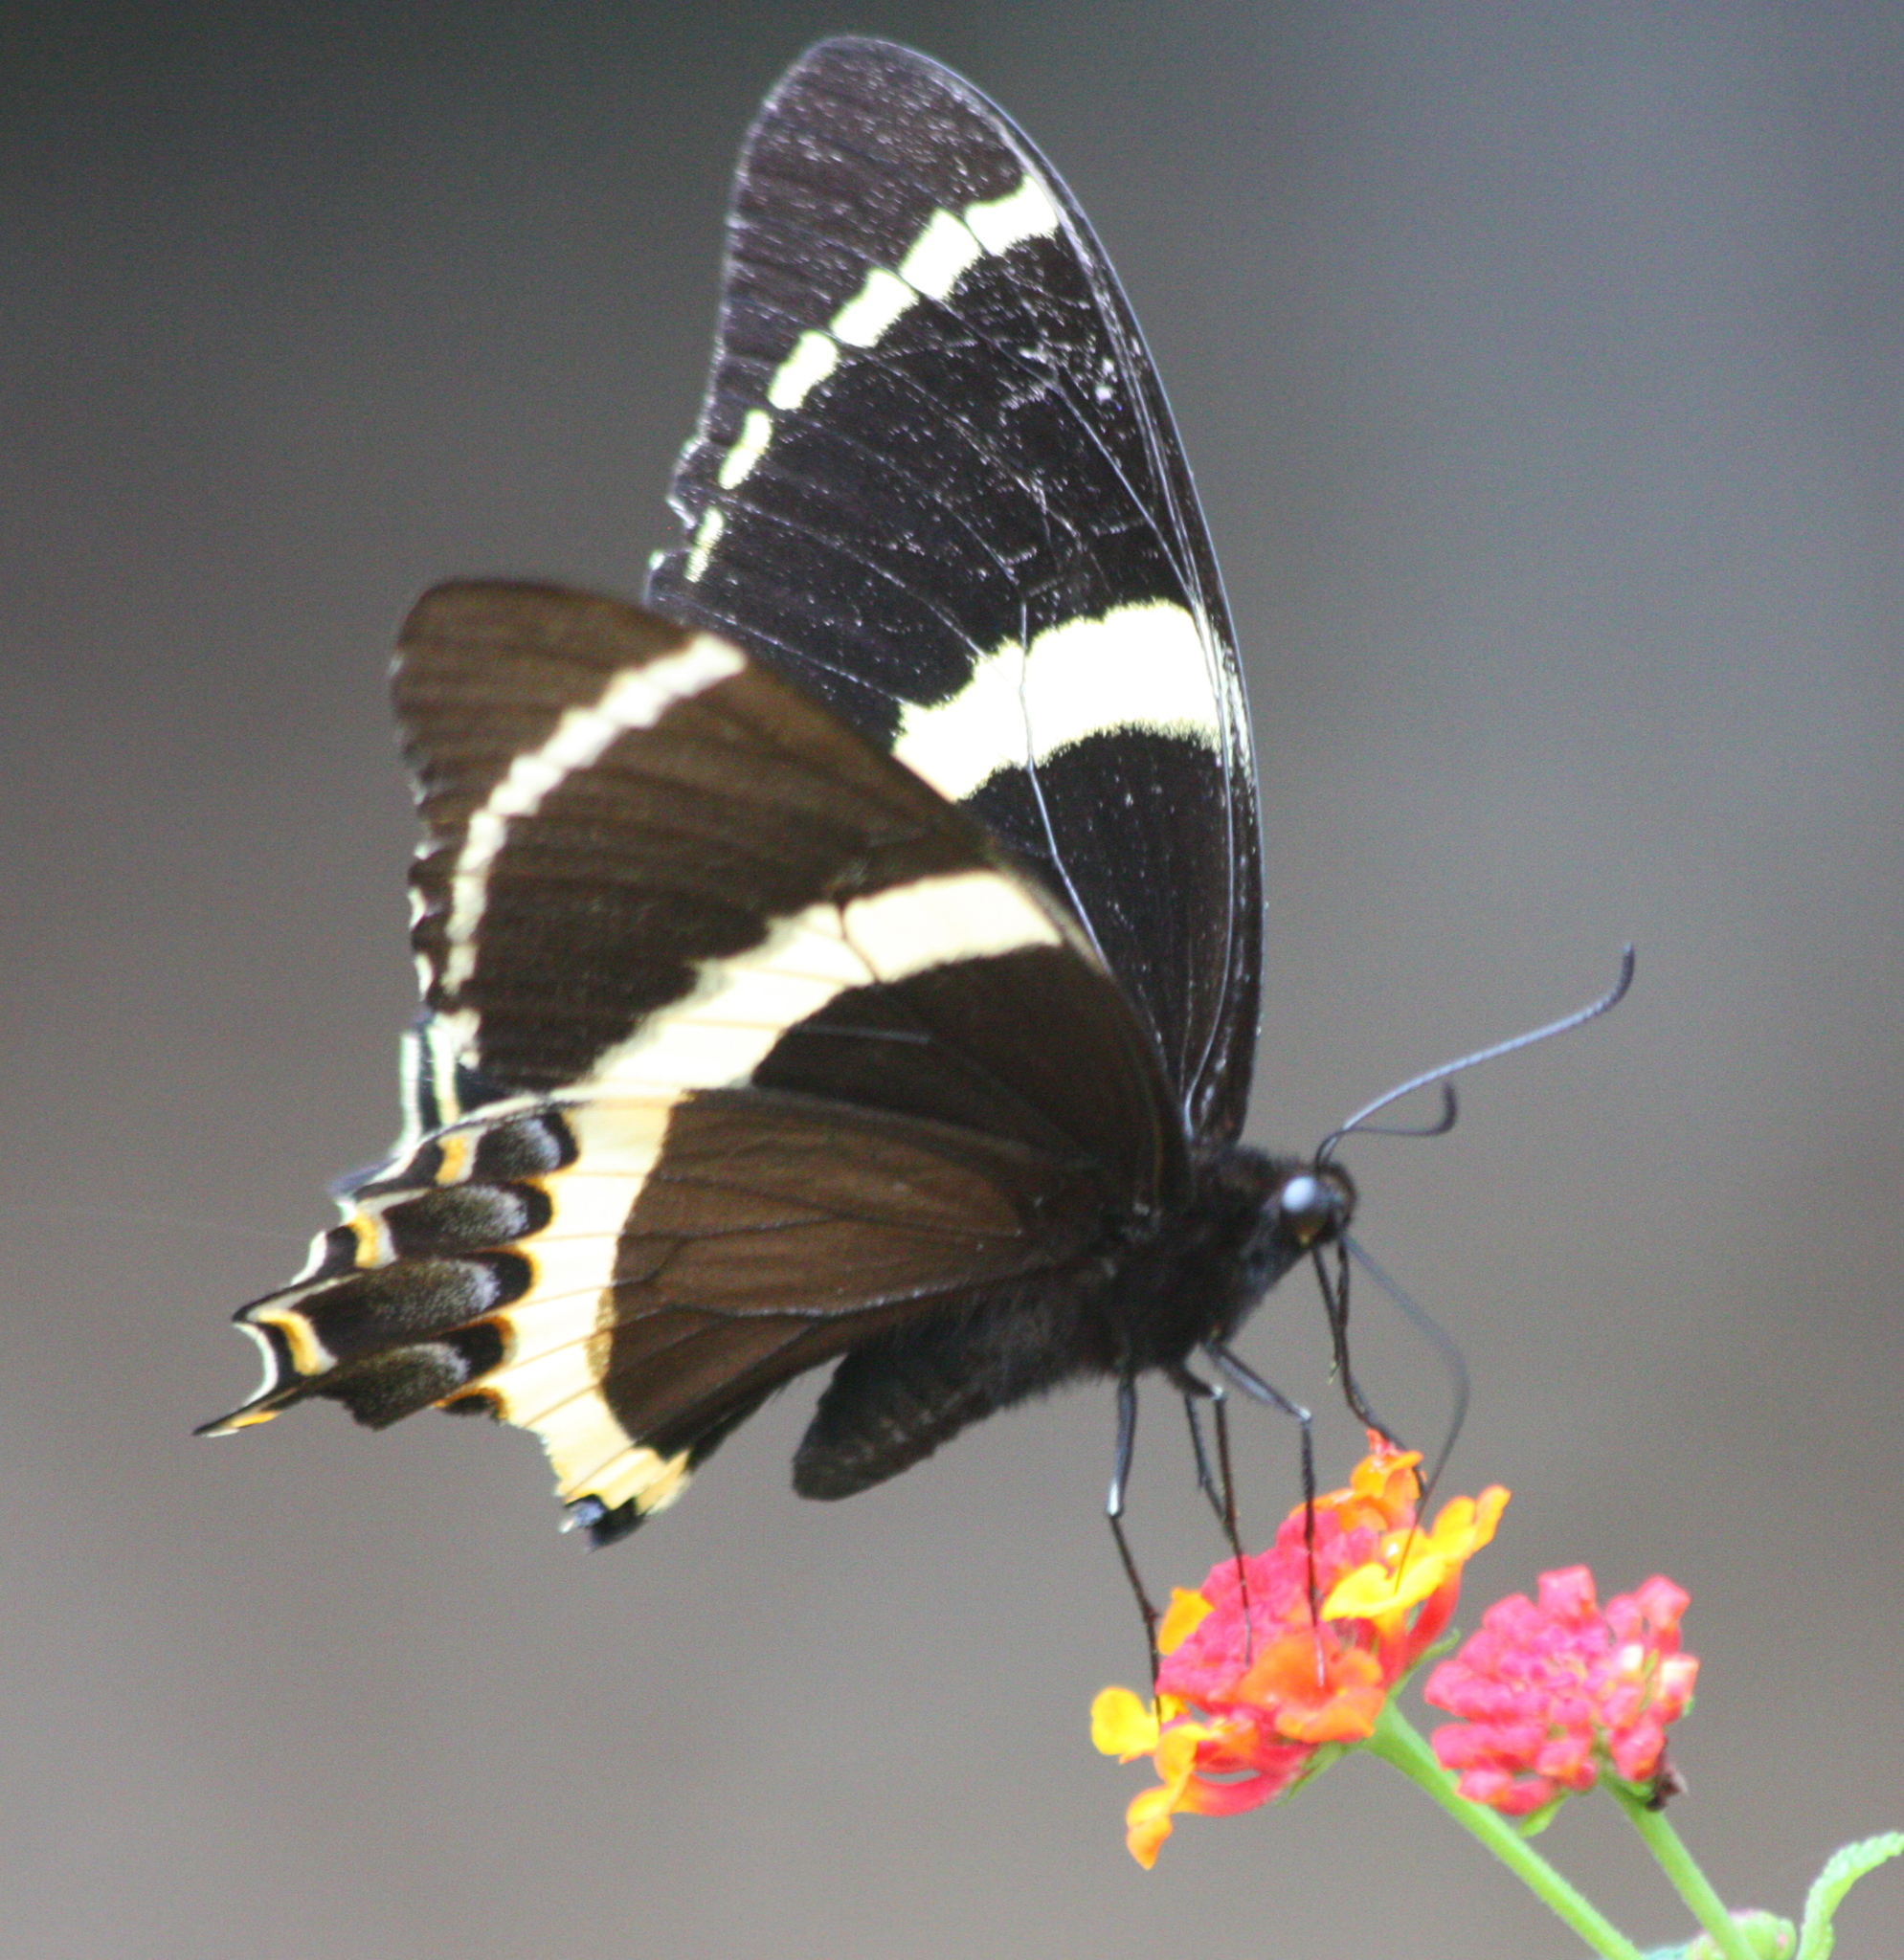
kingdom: Animalia
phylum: Arthropoda
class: Insecta
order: Lepidoptera
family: Papilionidae
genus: Papilio
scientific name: Papilio garamas
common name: Magnificent swallowtail
